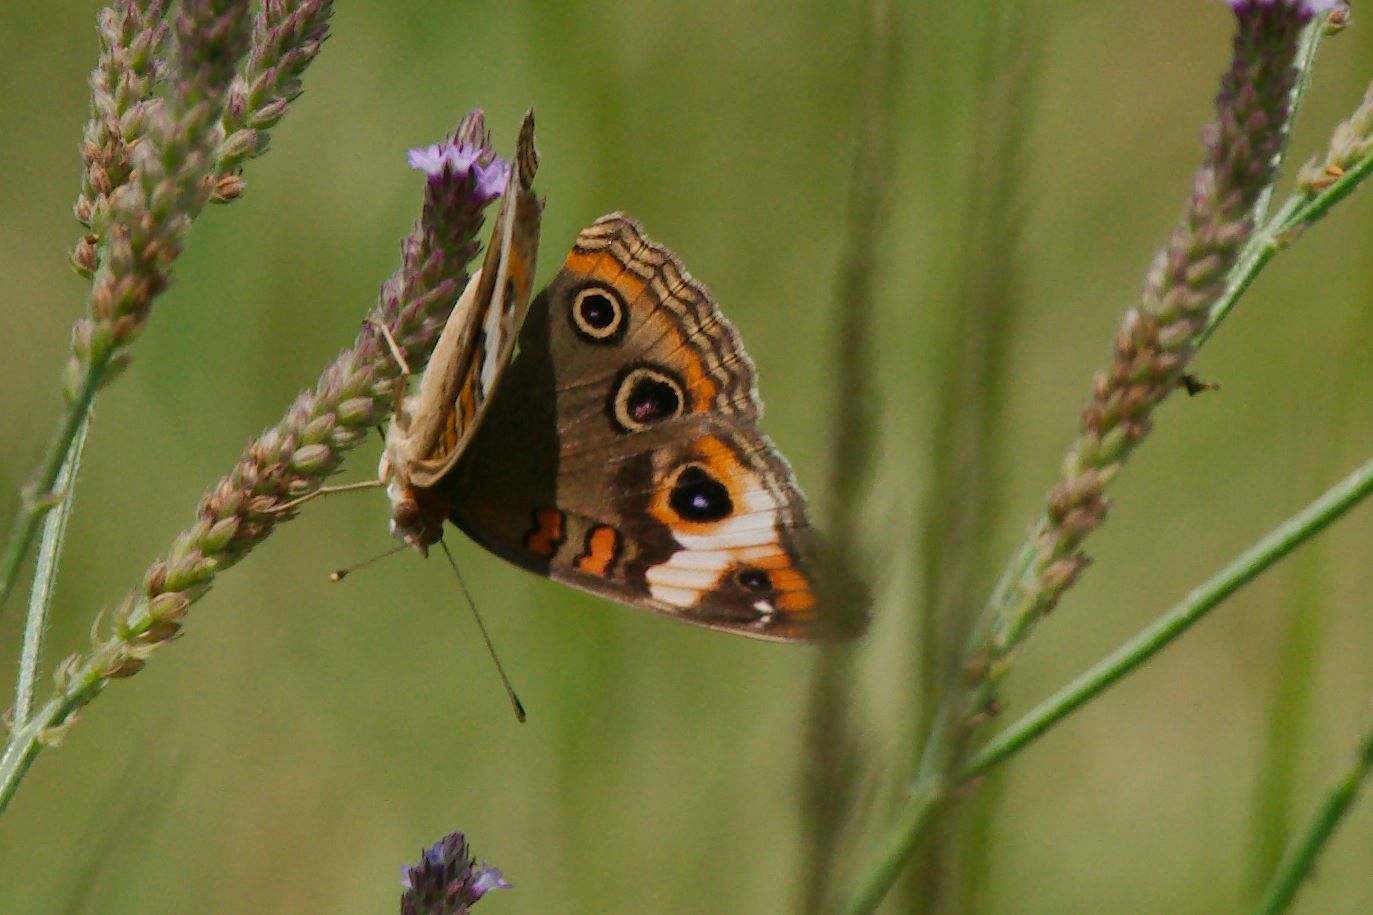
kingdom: Animalia
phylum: Arthropoda
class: Insecta
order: Lepidoptera
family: Nymphalidae
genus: Junonia
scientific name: Junonia coenia
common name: Common buckeye
